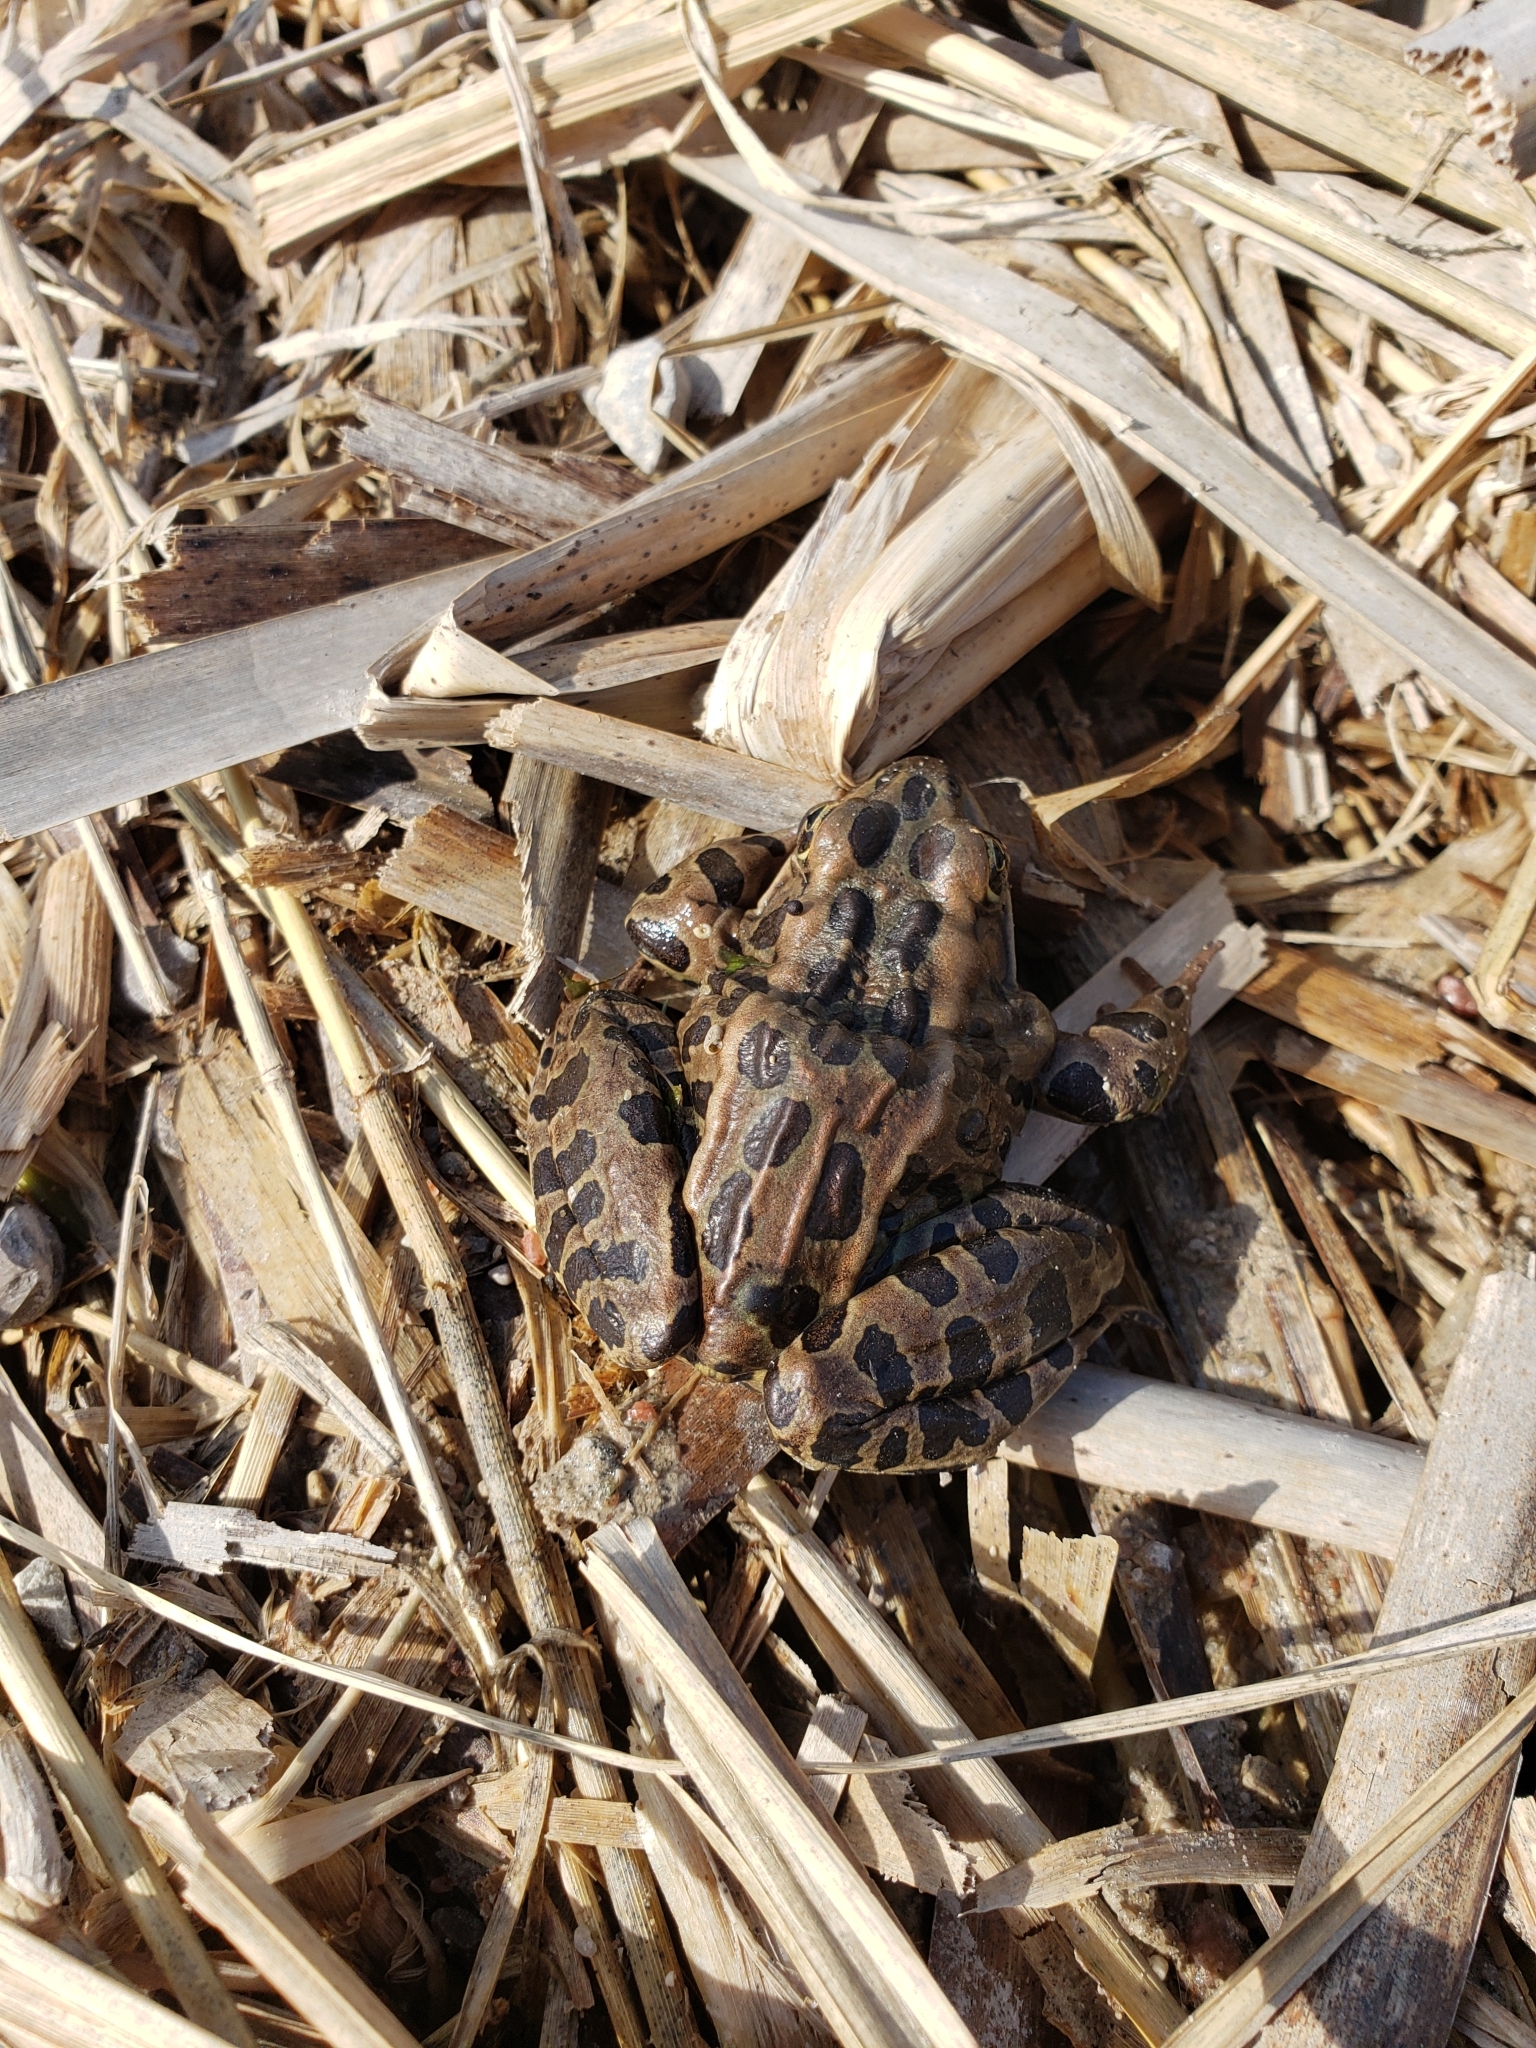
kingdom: Animalia
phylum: Chordata
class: Amphibia
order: Anura
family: Ranidae
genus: Lithobates
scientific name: Lithobates pipiens
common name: Northern leopard frog
